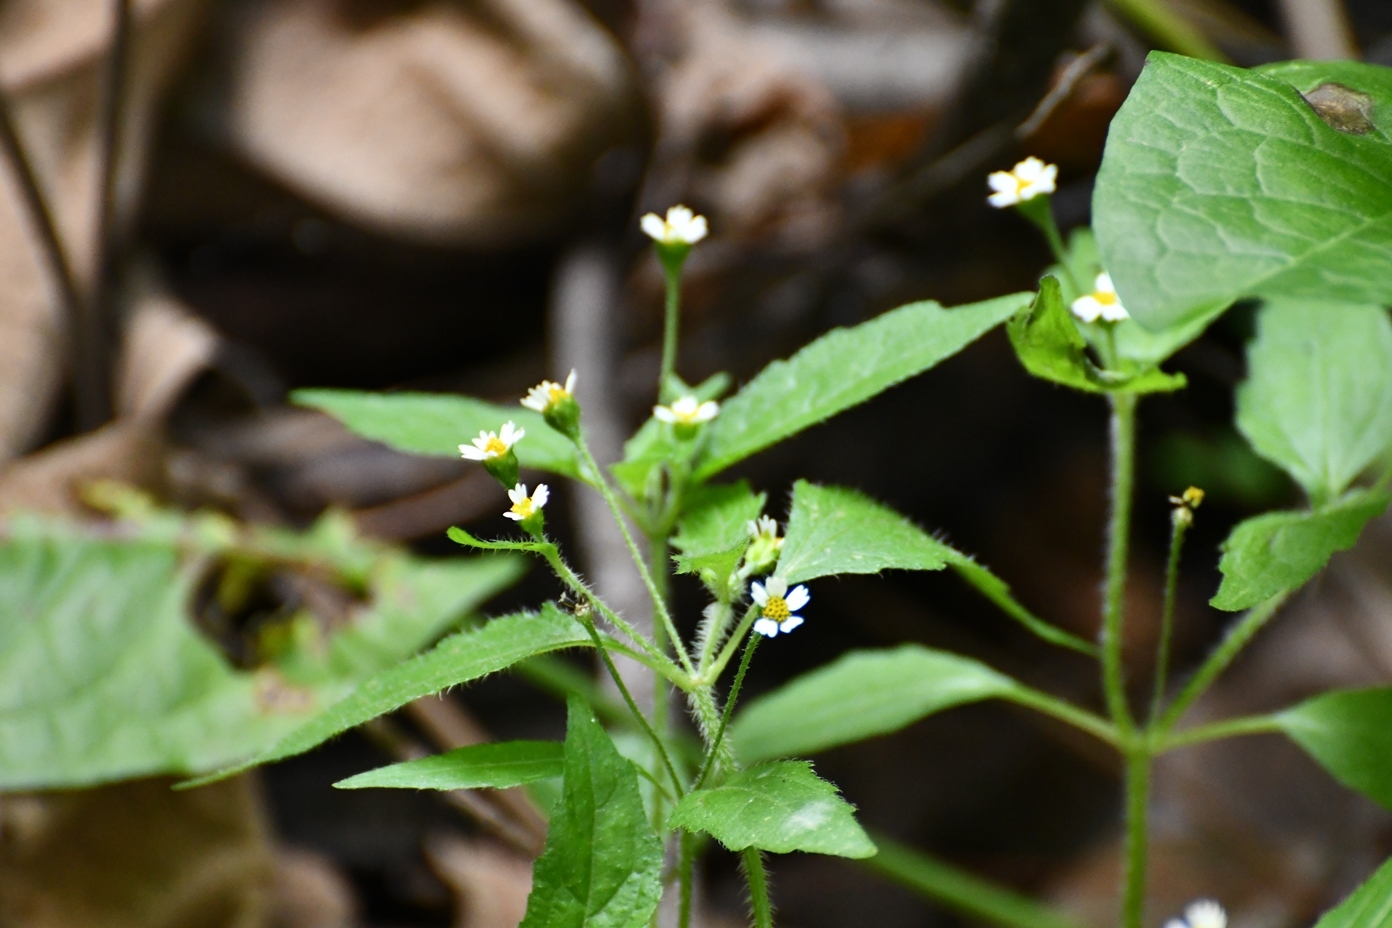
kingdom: Plantae
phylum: Tracheophyta
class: Magnoliopsida
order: Asterales
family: Asteraceae
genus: Galinsoga
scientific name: Galinsoga quadriradiata
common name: Shaggy soldier
